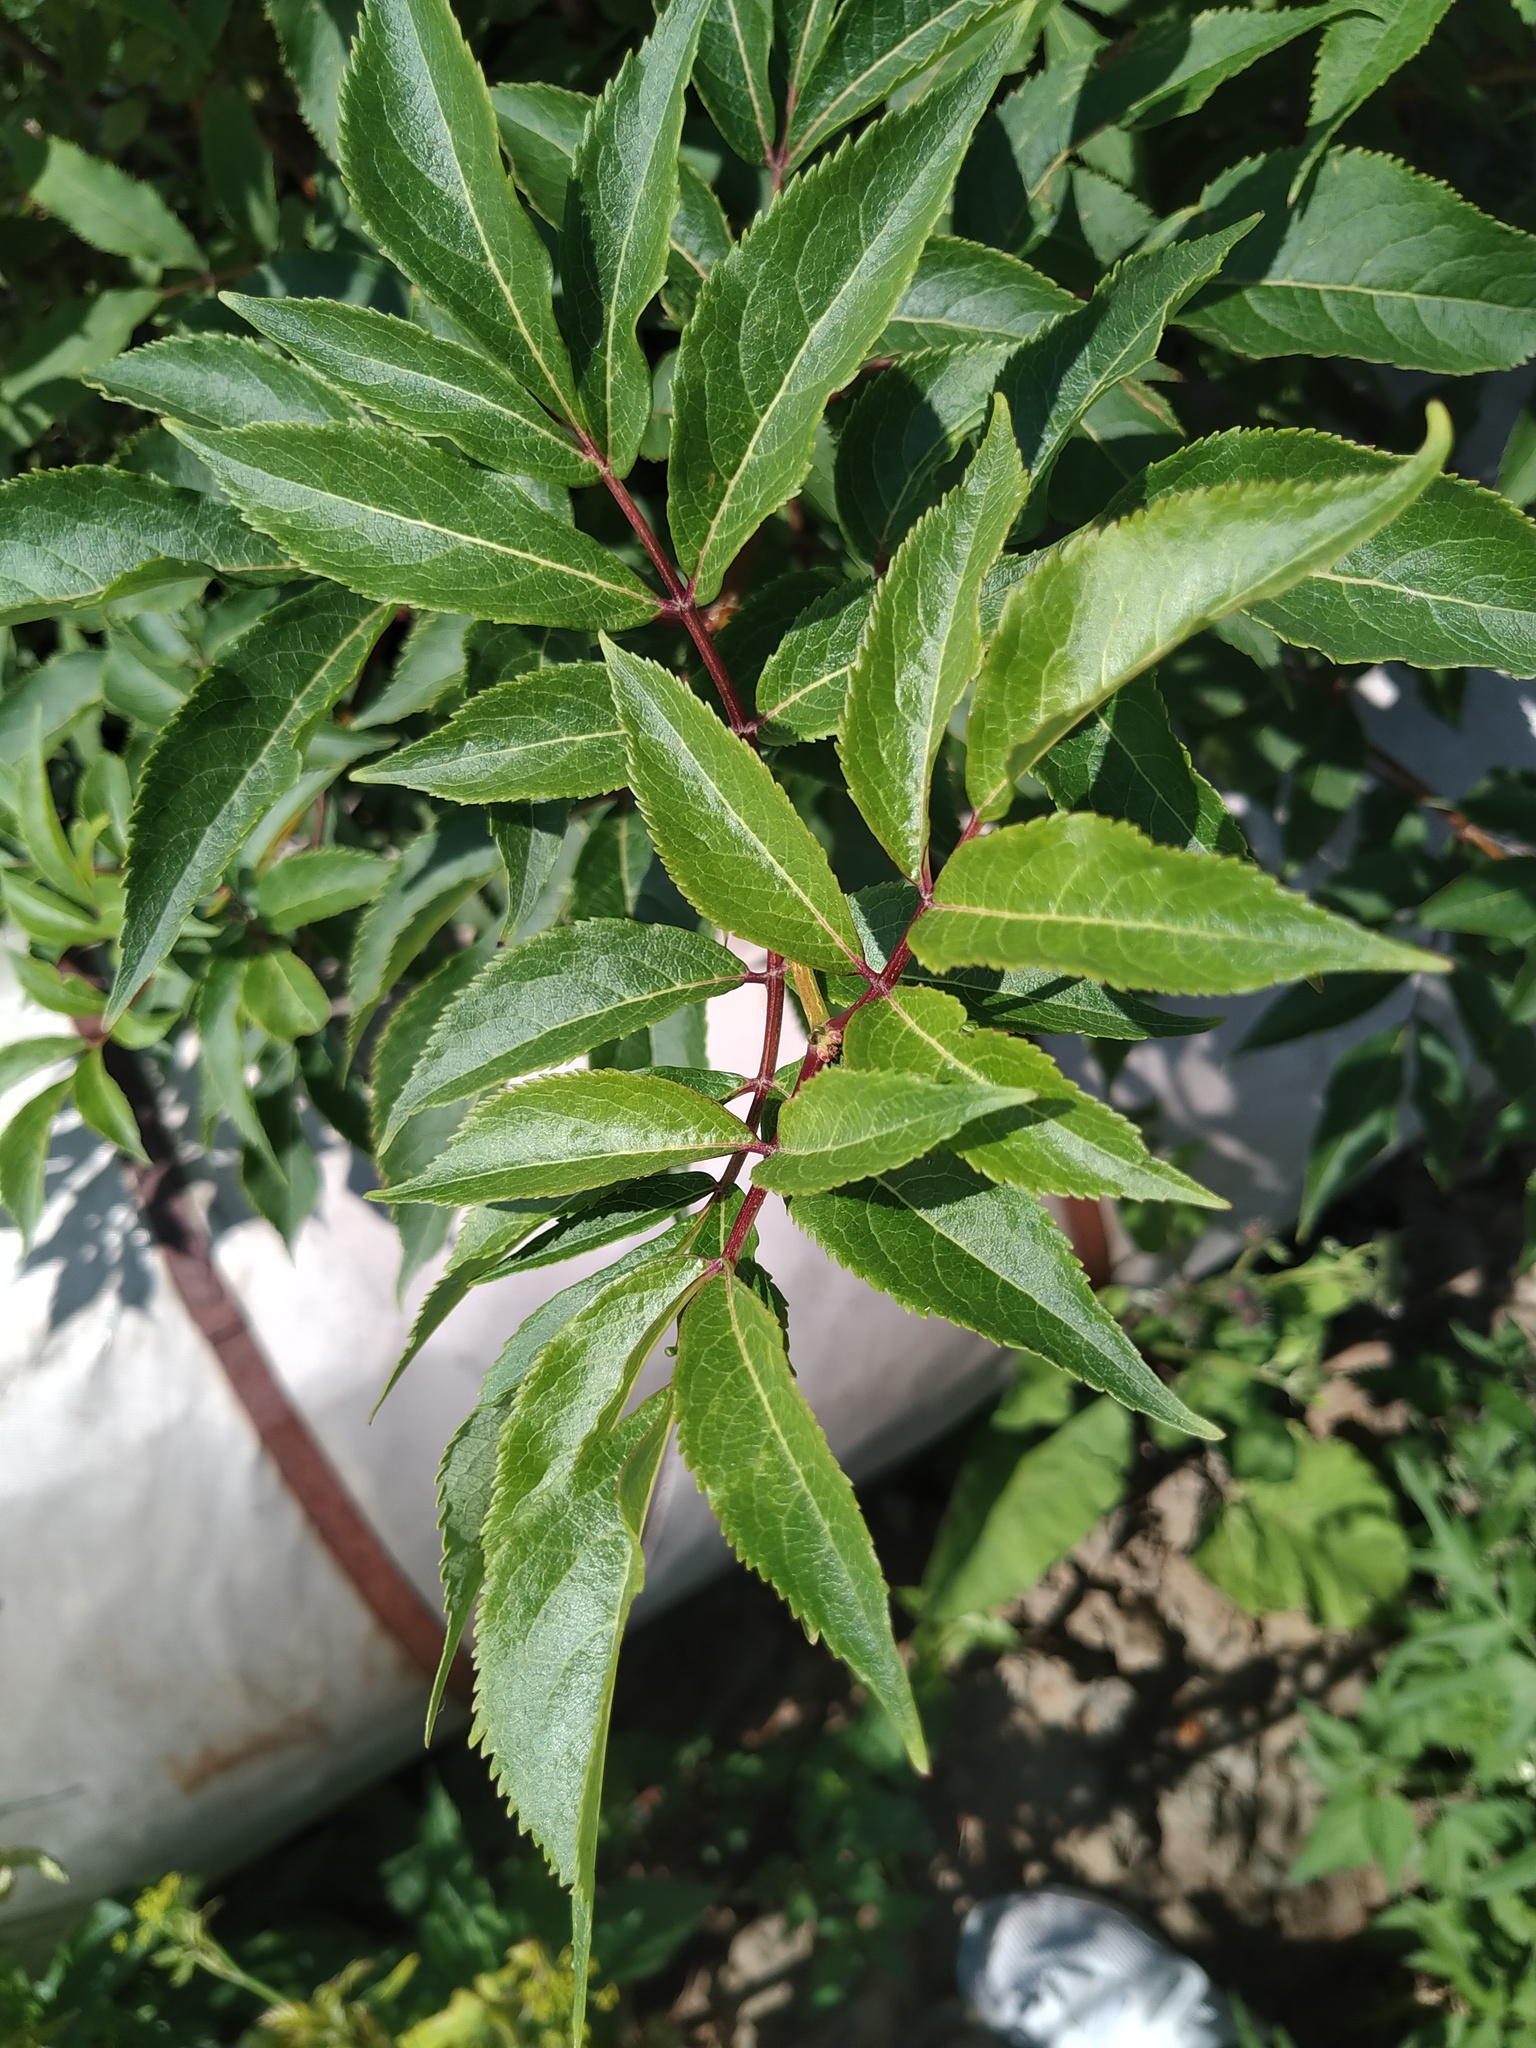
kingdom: Plantae
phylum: Tracheophyta
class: Magnoliopsida
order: Dipsacales
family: Viburnaceae
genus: Sambucus
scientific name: Sambucus racemosa
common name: Red-berried elder
